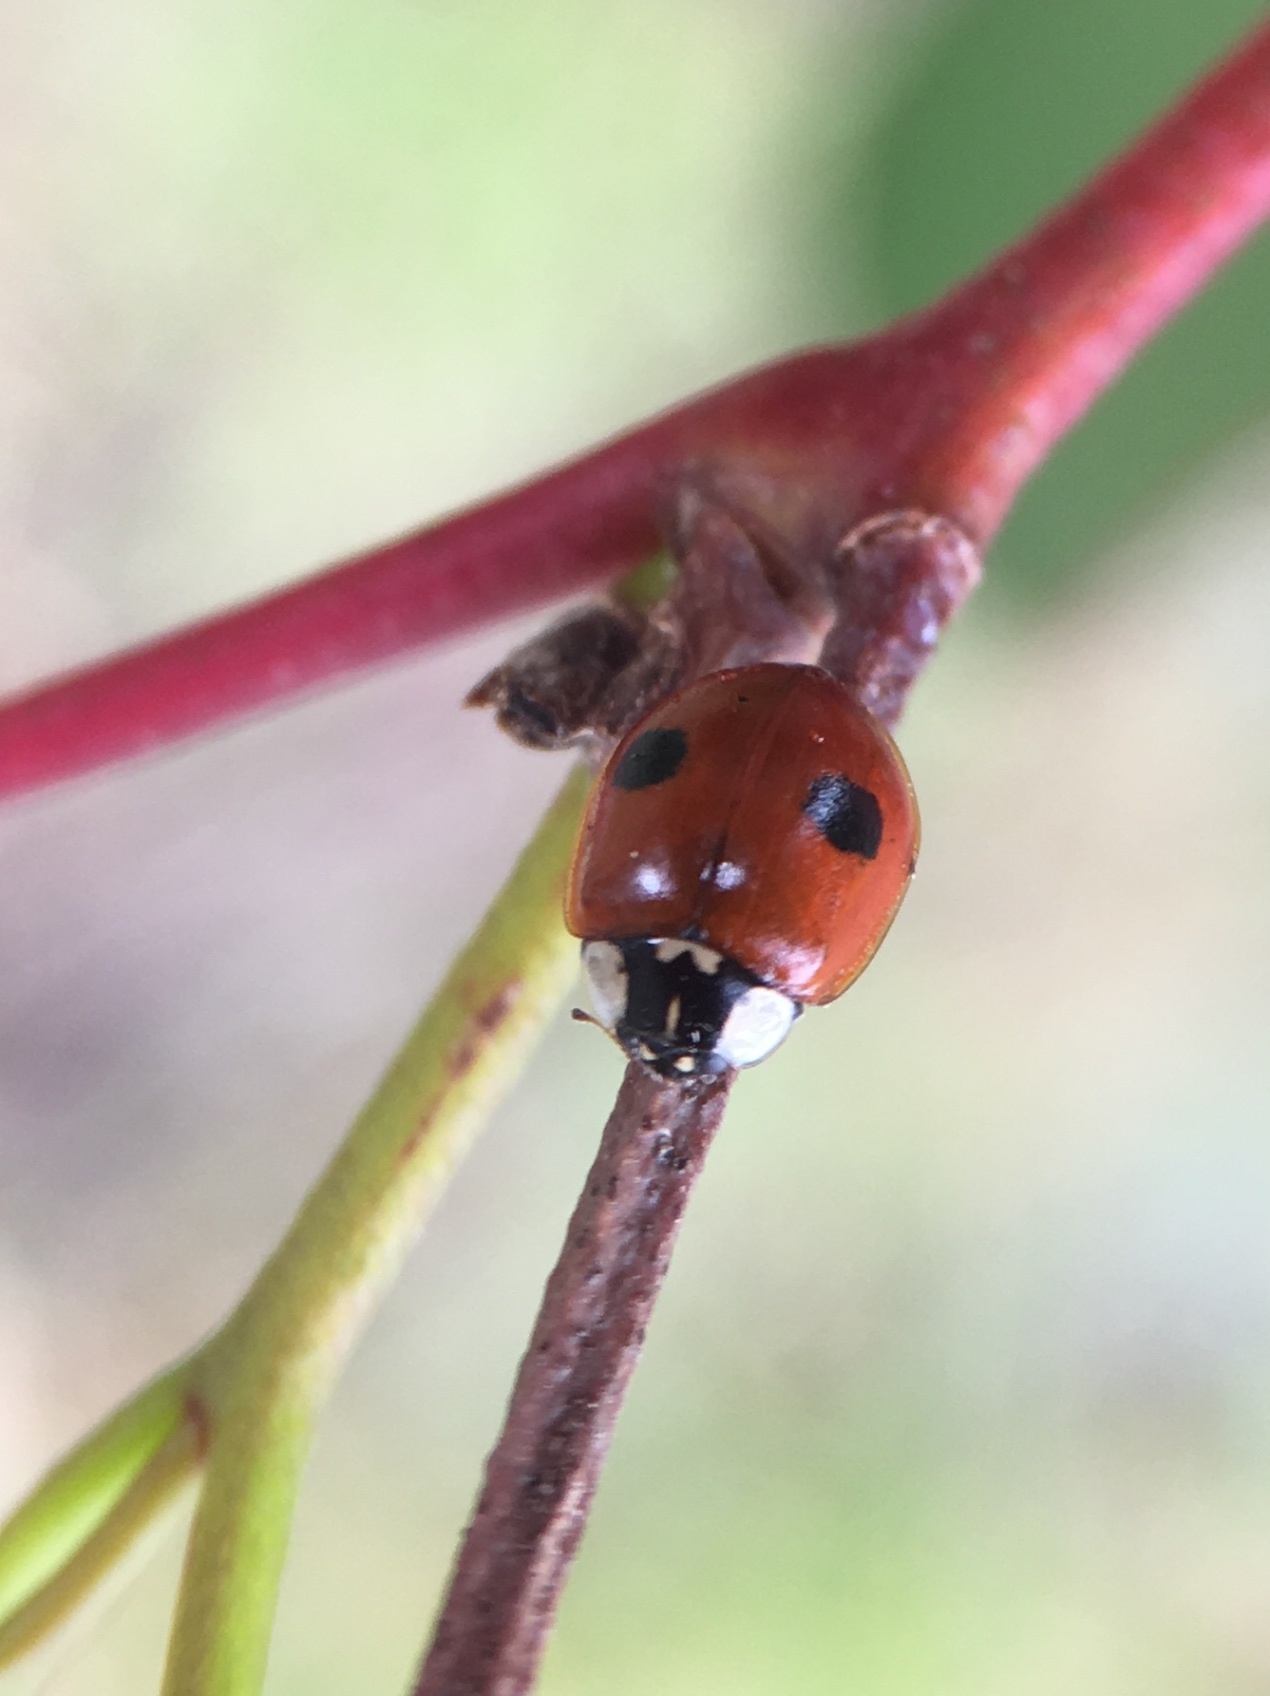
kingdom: Animalia
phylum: Arthropoda
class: Insecta
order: Coleoptera
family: Coccinellidae
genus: Adalia
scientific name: Adalia bipunctata
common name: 2-spot ladybird
